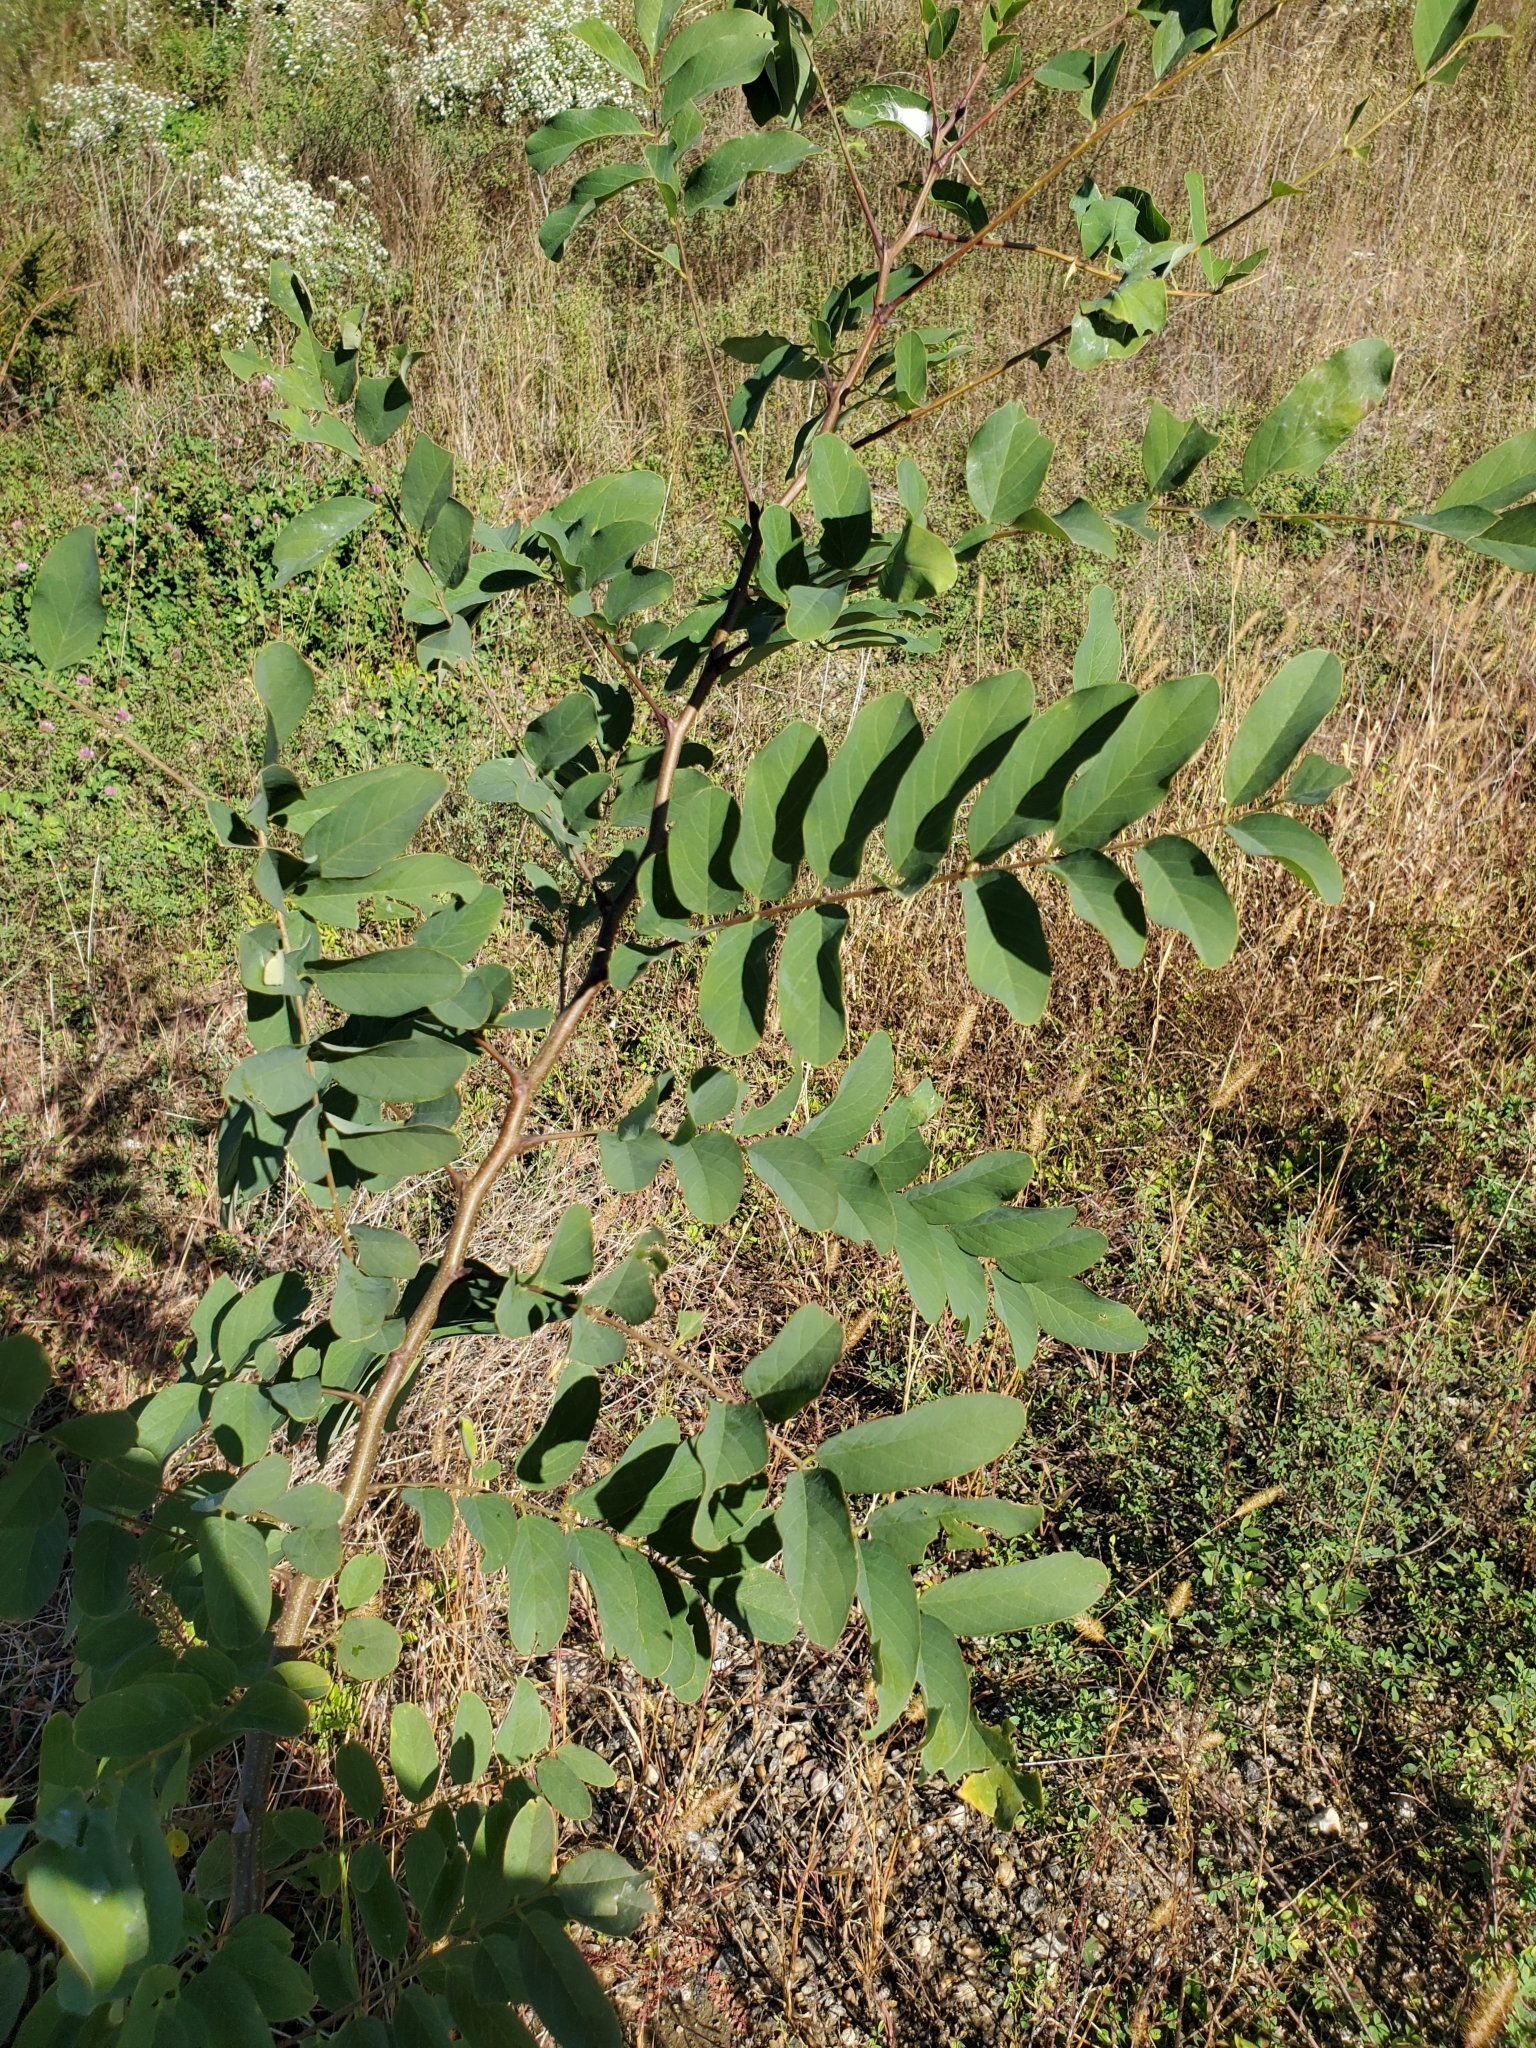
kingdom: Plantae
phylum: Tracheophyta
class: Magnoliopsida
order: Fabales
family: Fabaceae
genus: Robinia
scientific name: Robinia pseudoacacia
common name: Black locust
